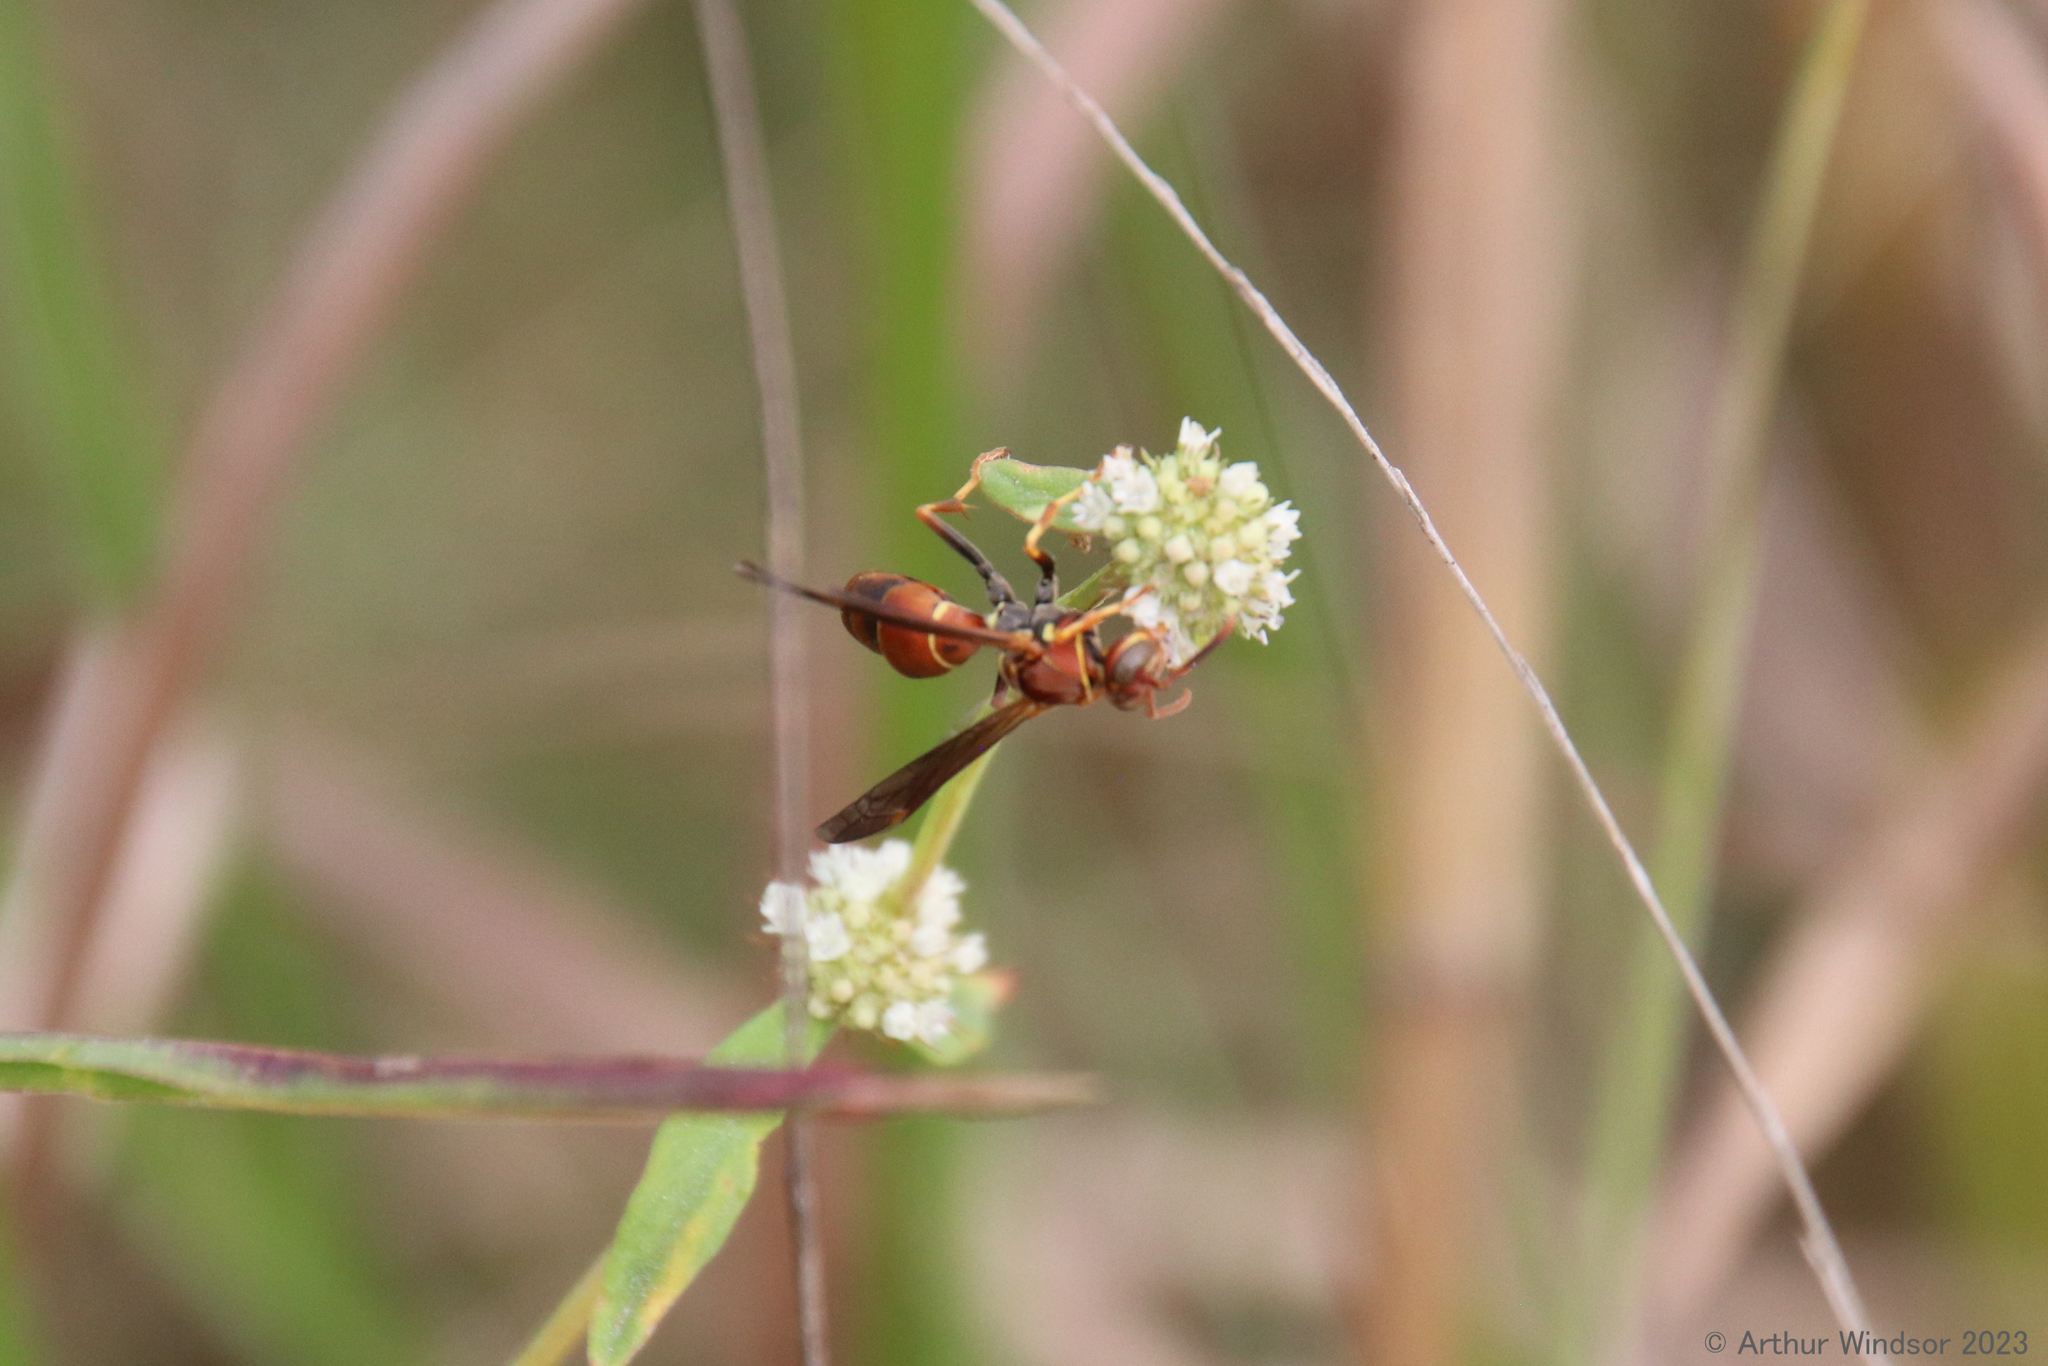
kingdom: Animalia
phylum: Arthropoda
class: Insecta
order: Hymenoptera
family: Eumenidae
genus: Polistes
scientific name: Polistes dorsalis
